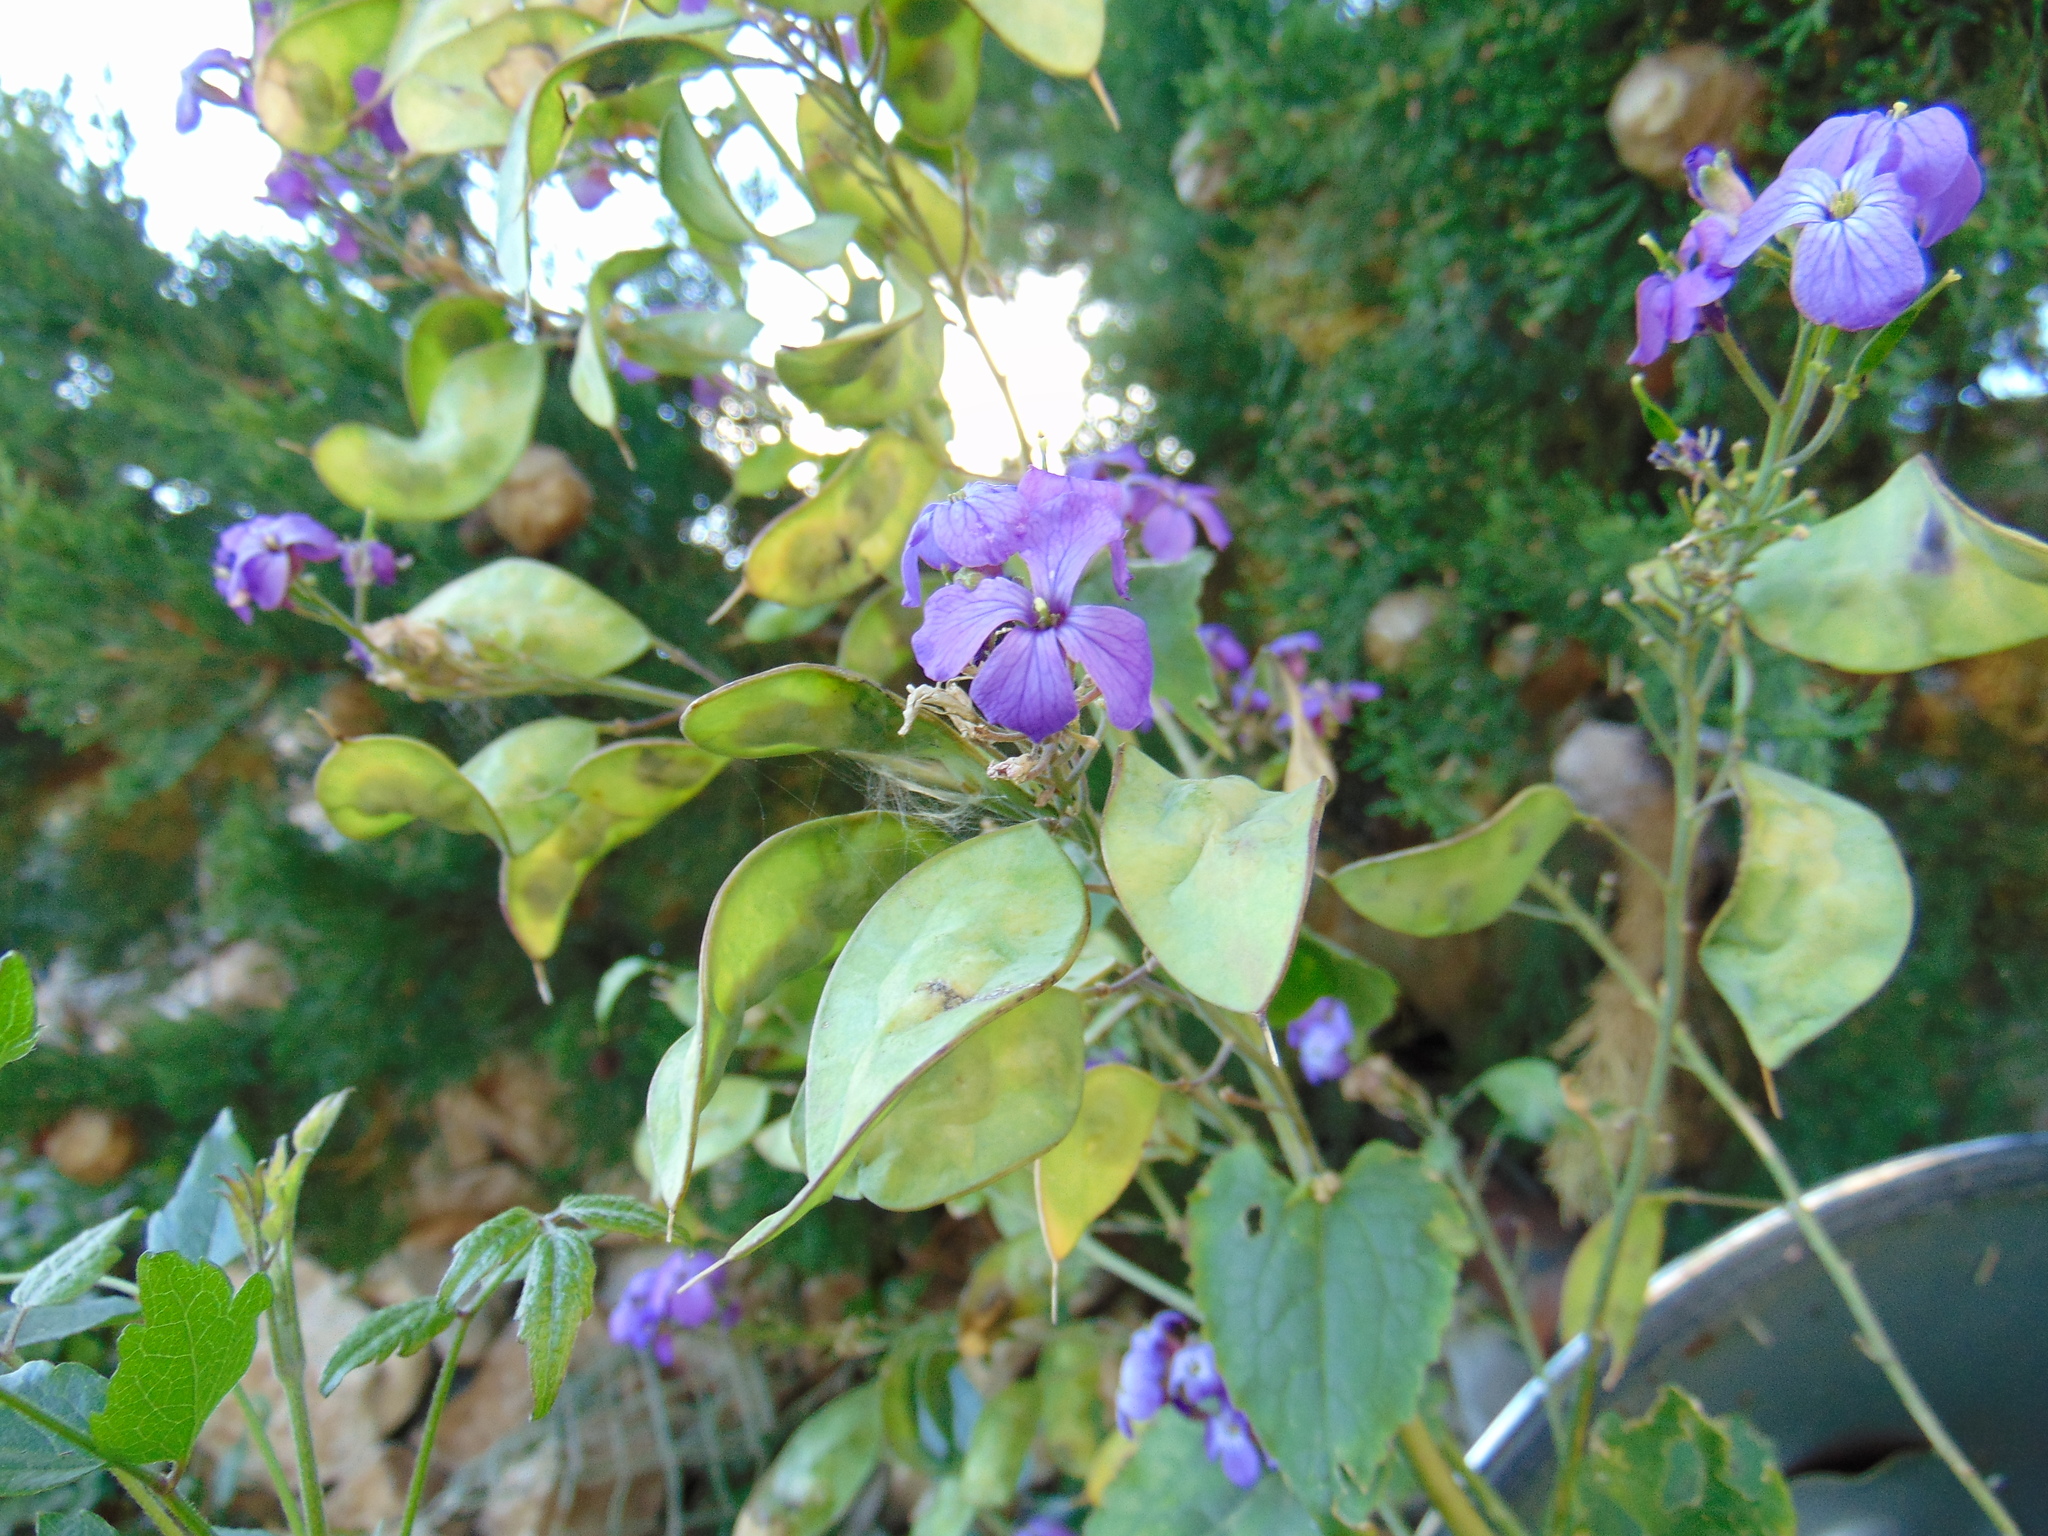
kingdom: Plantae
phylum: Tracheophyta
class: Magnoliopsida
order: Brassicales
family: Brassicaceae
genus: Lunaria
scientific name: Lunaria annua
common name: Honesty
